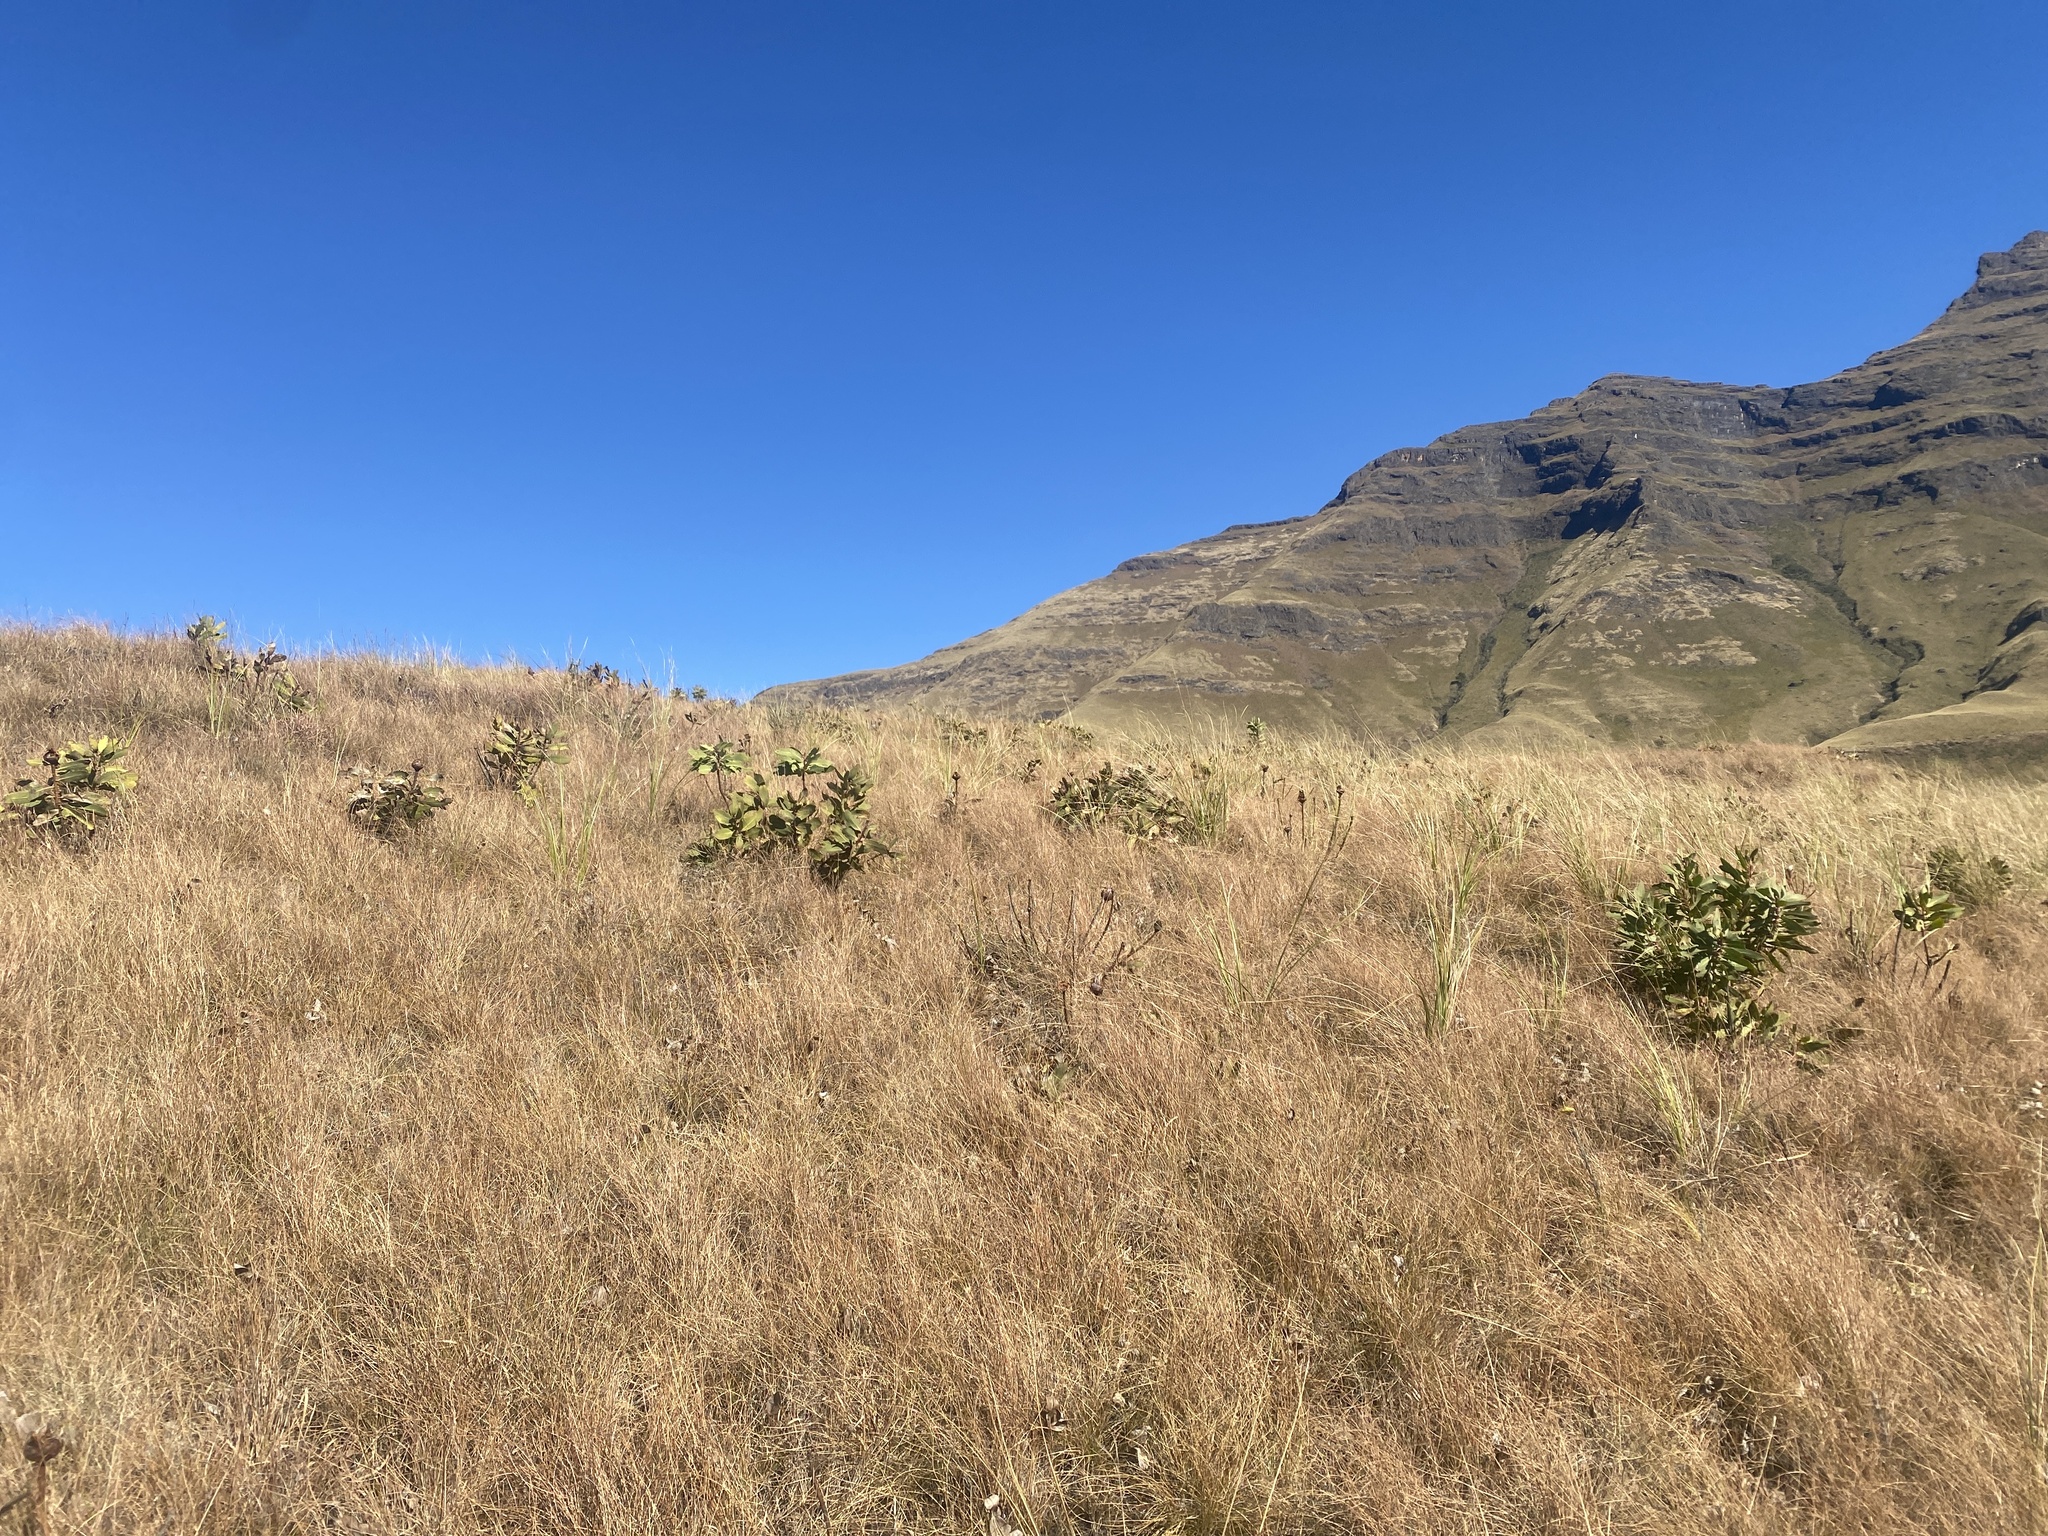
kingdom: Plantae
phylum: Tracheophyta
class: Magnoliopsida
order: Proteales
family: Proteaceae
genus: Protea
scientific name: Protea dracomontana
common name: Drakensberg dwarf sugarbush
